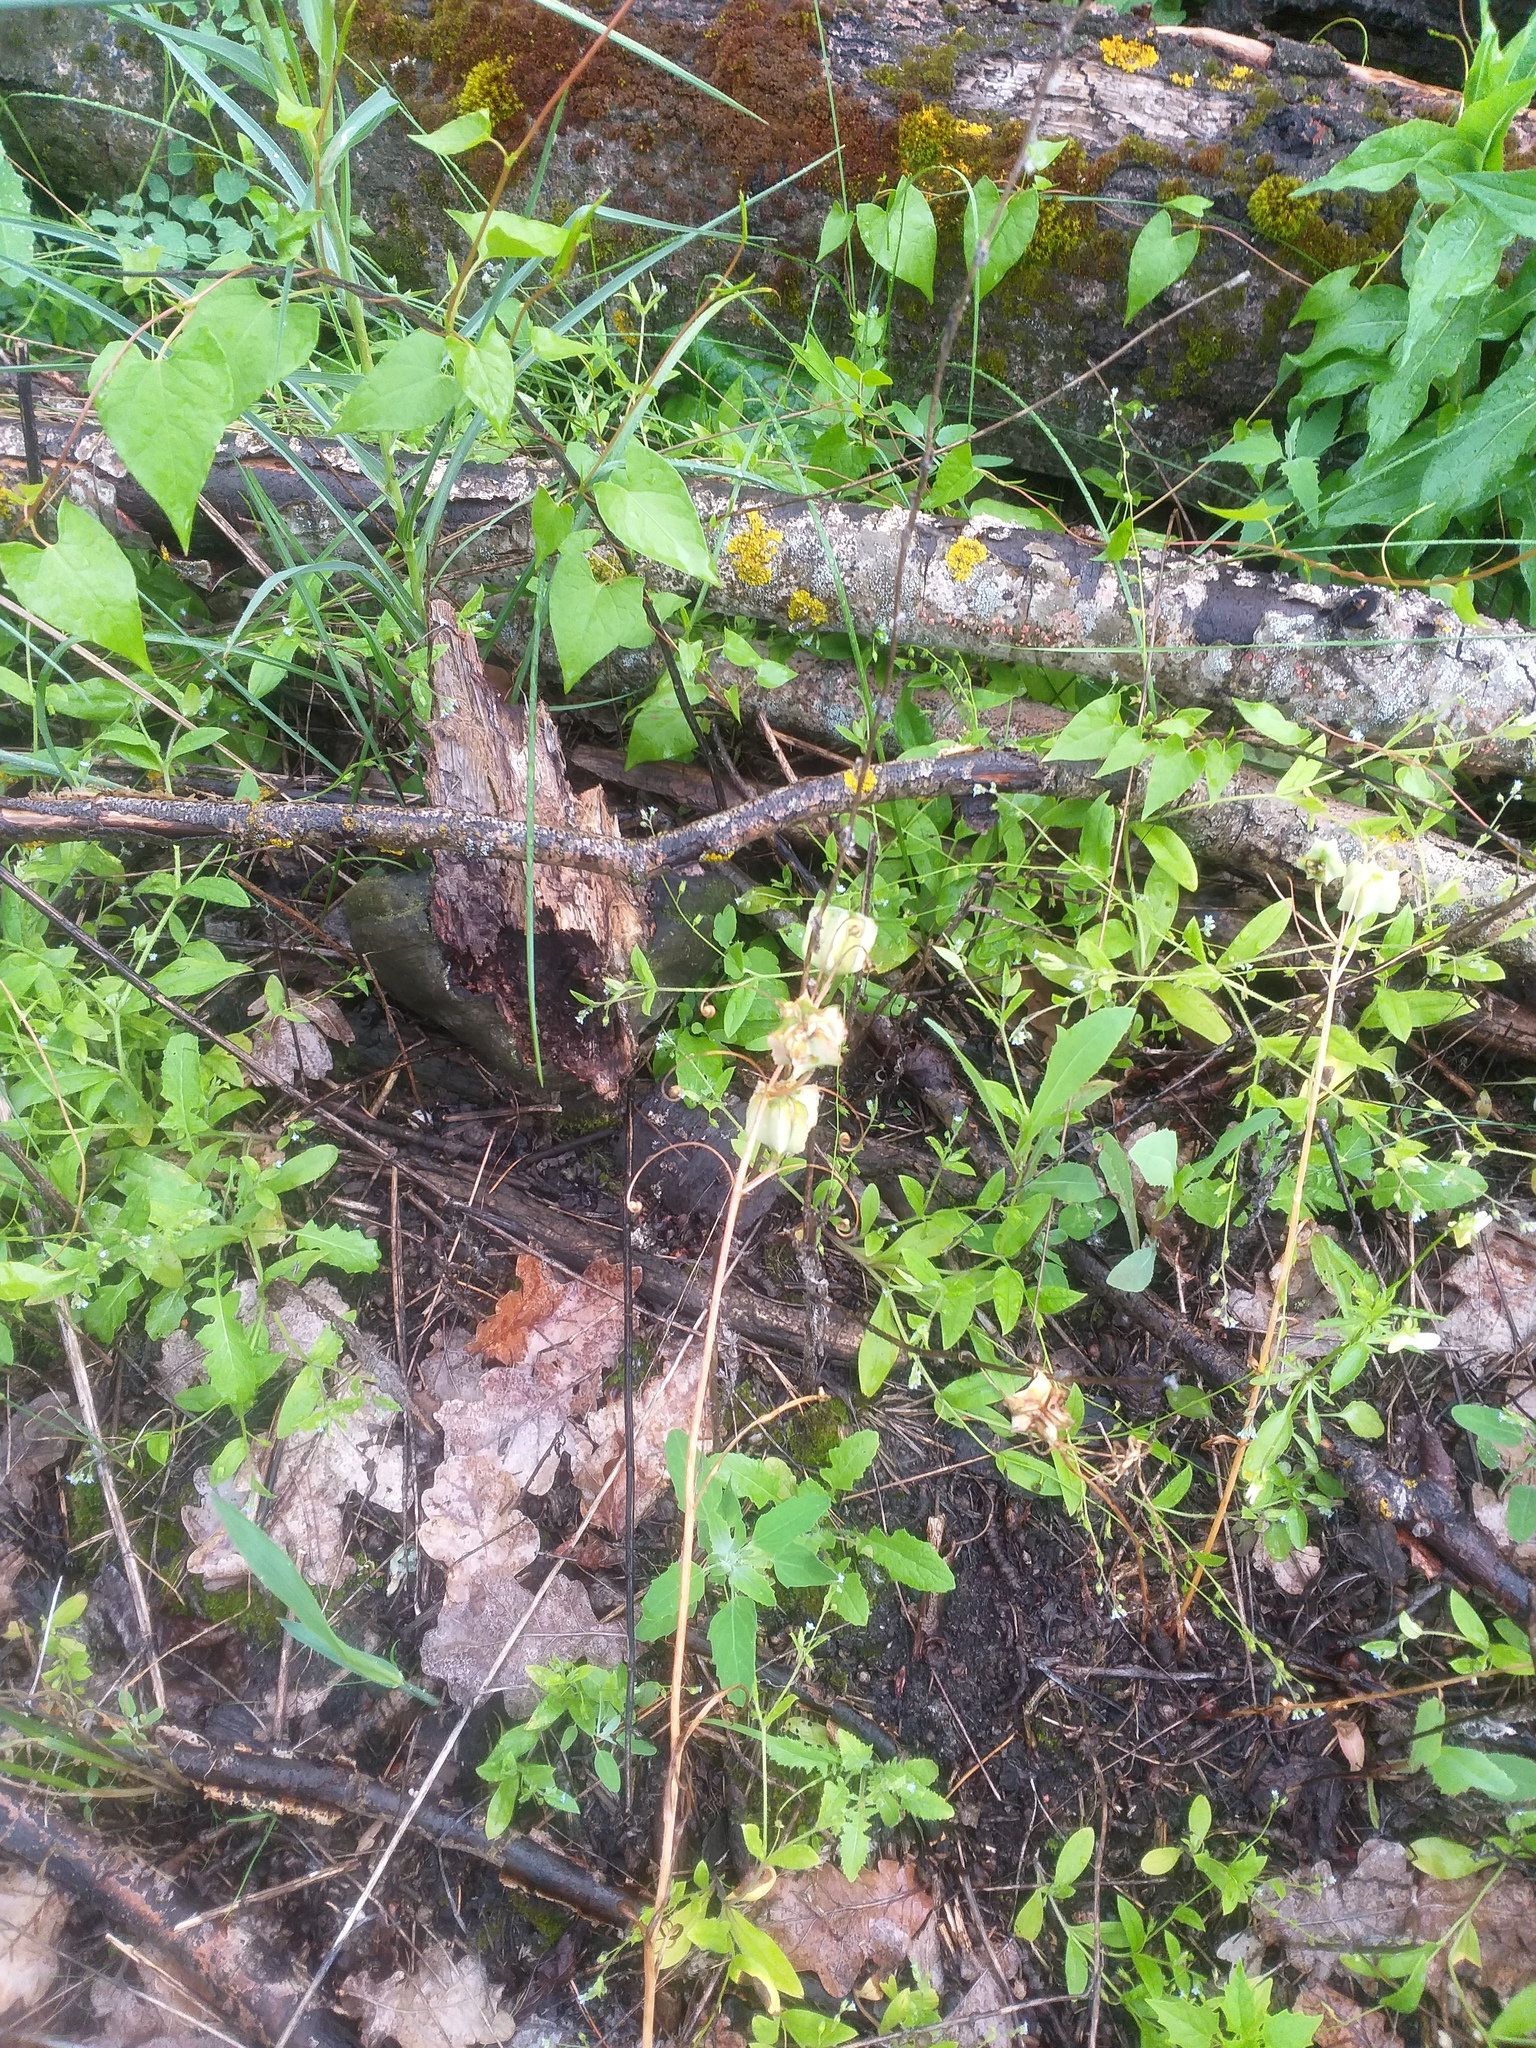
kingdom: Plantae
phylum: Tracheophyta
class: Liliopsida
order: Liliales
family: Liliaceae
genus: Fritillaria
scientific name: Fritillaria ruthenica
